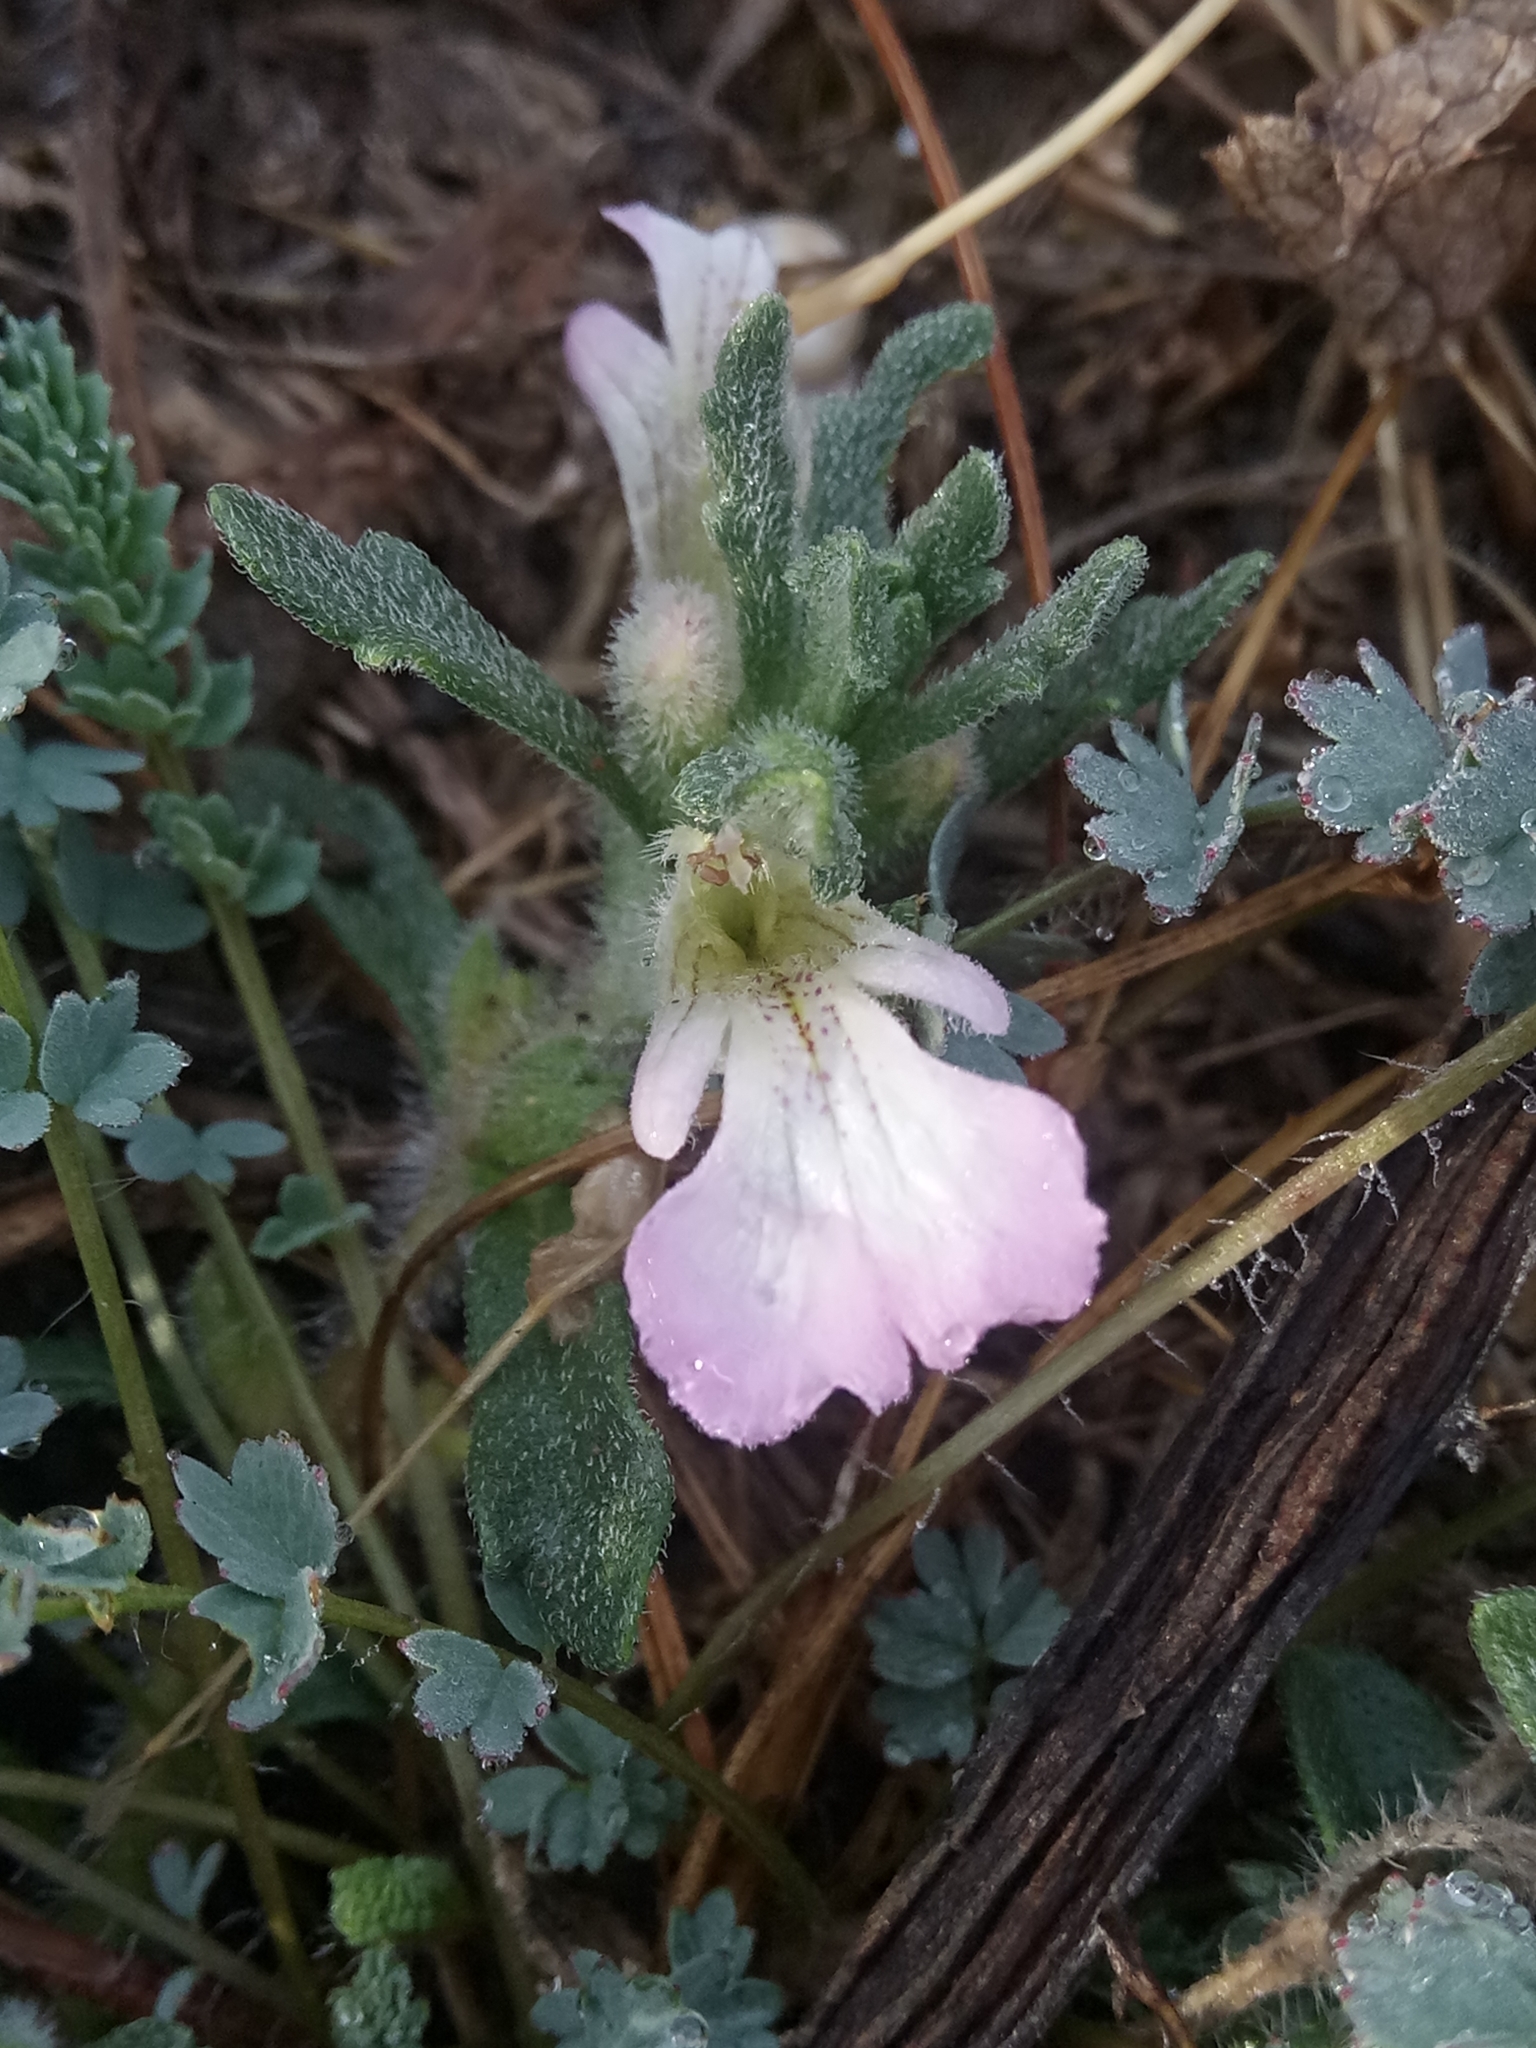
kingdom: Plantae
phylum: Tracheophyta
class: Magnoliopsida
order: Lamiales
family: Lamiaceae
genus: Ajuga
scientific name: Ajuga iva
